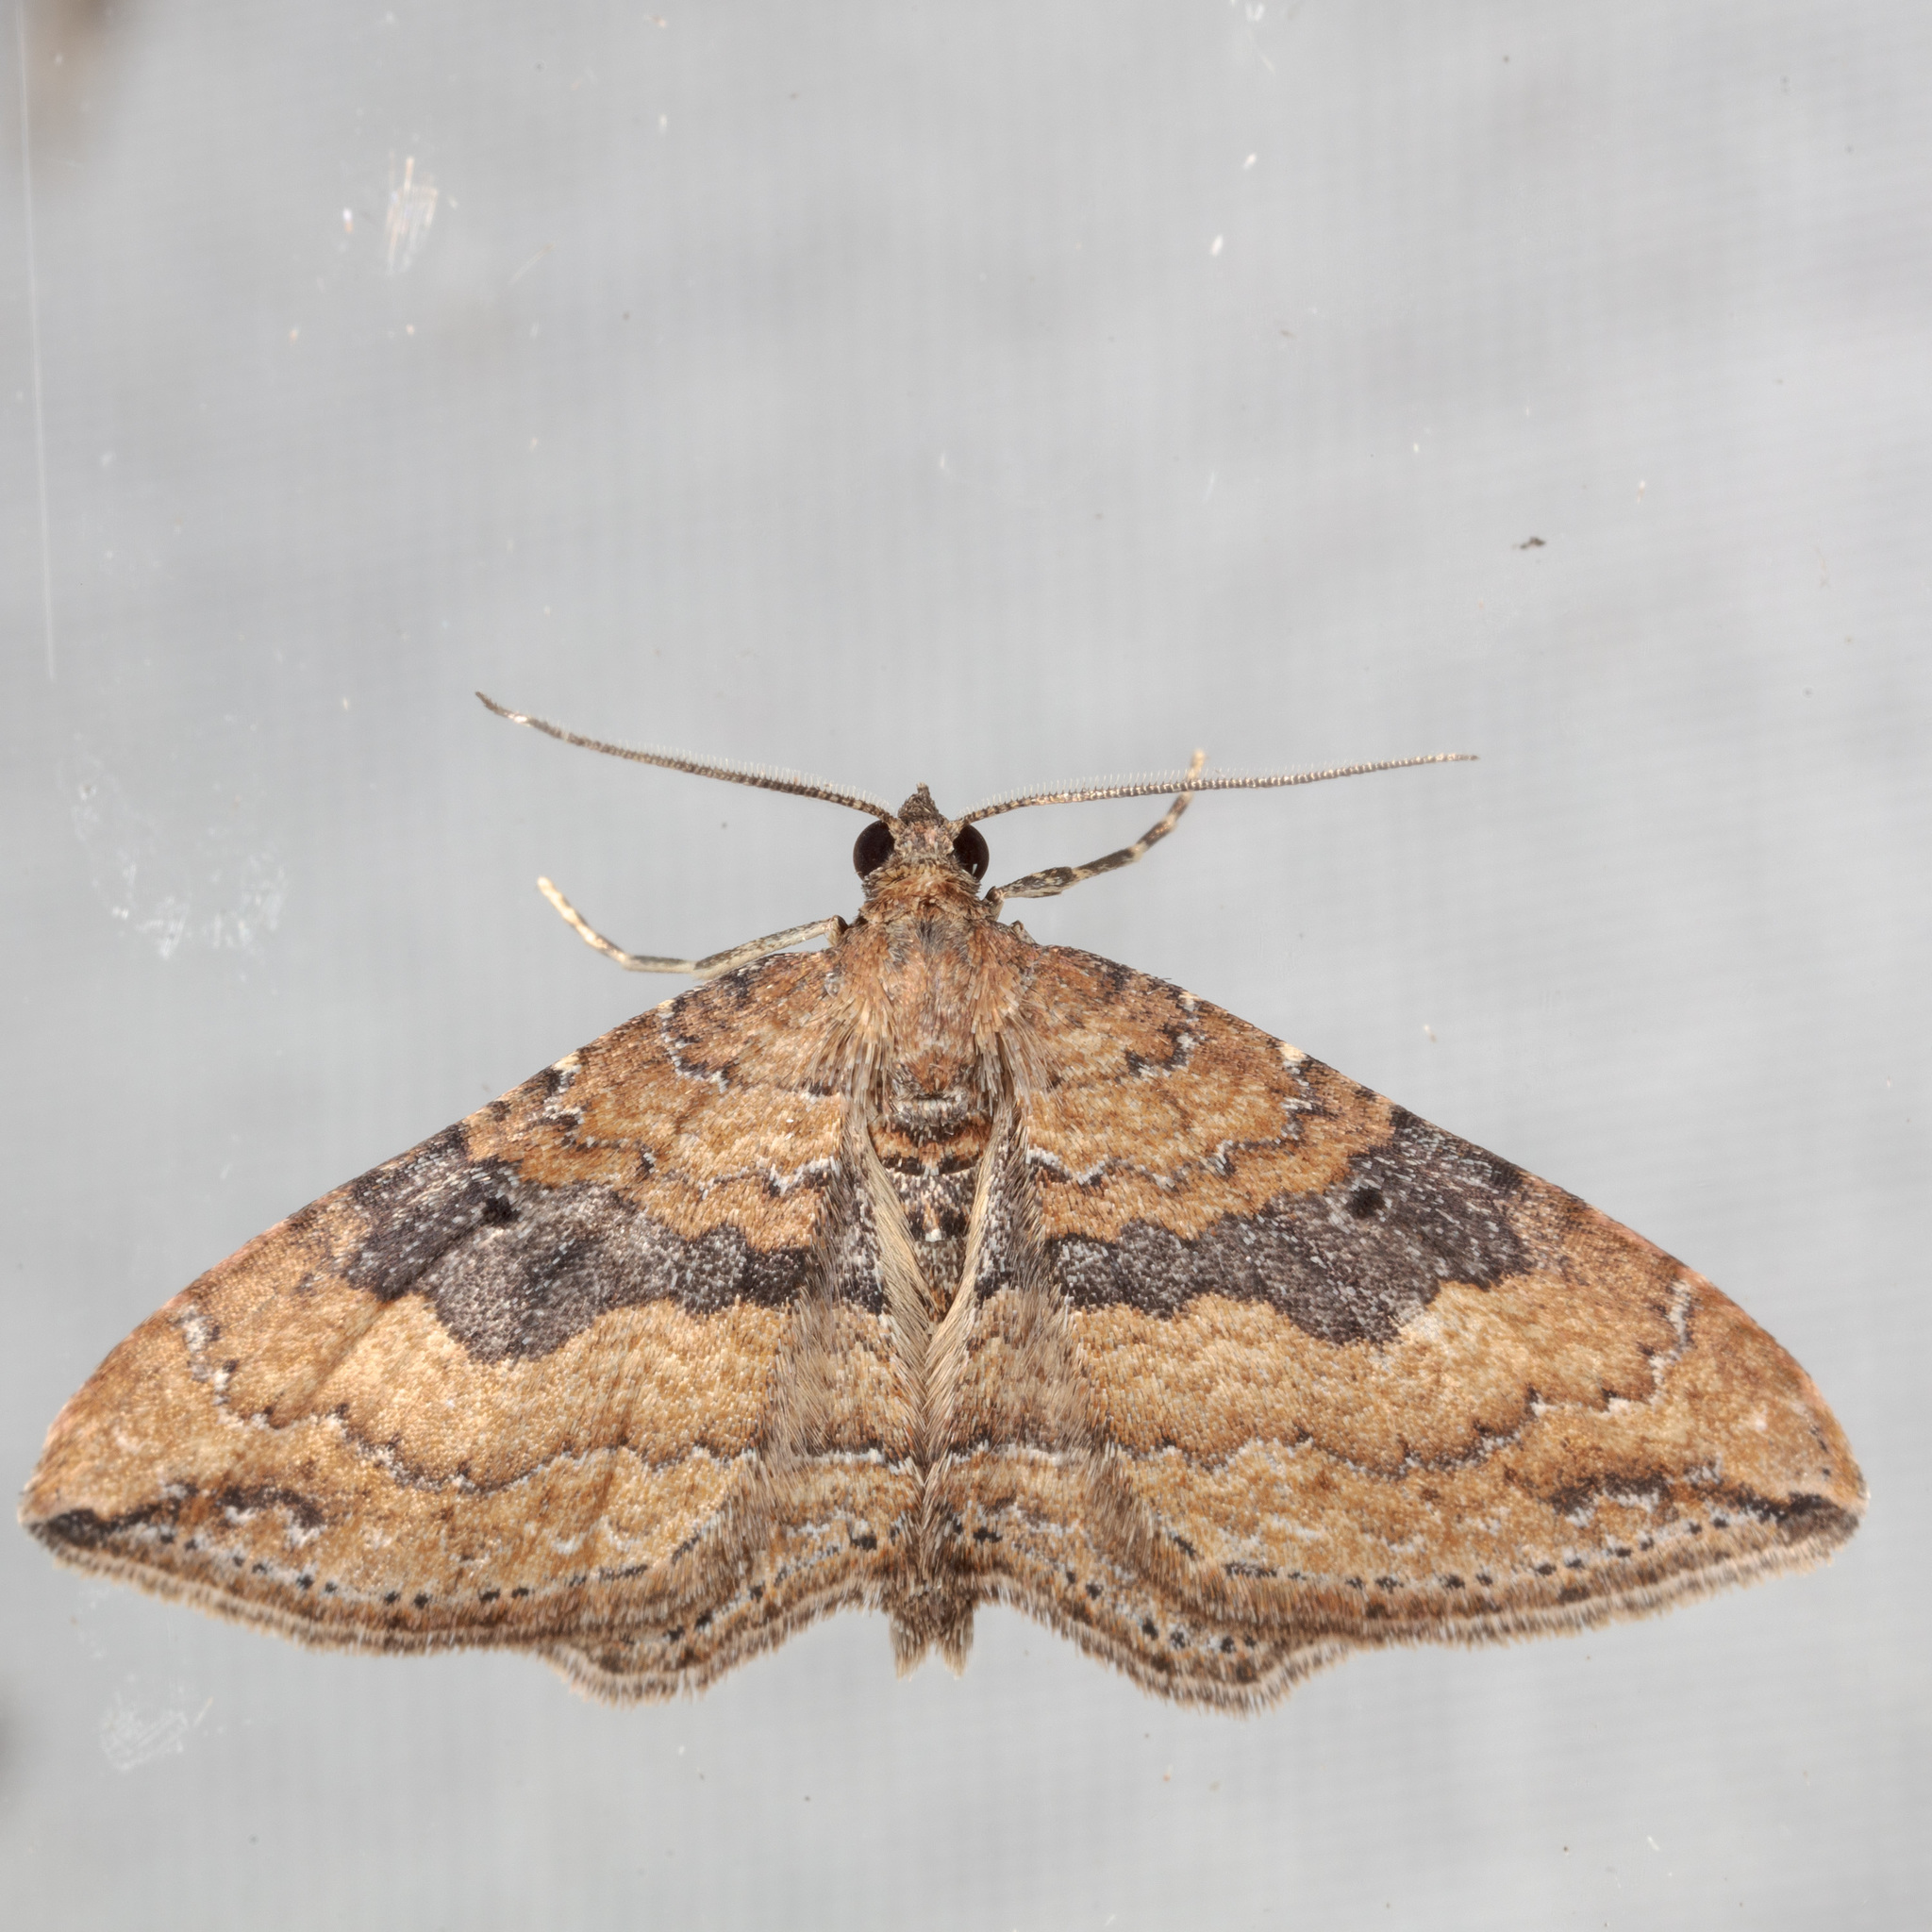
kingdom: Animalia
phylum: Arthropoda
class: Insecta
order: Lepidoptera
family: Geometridae
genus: Orthonama
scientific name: Orthonama obstipata
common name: The gem
